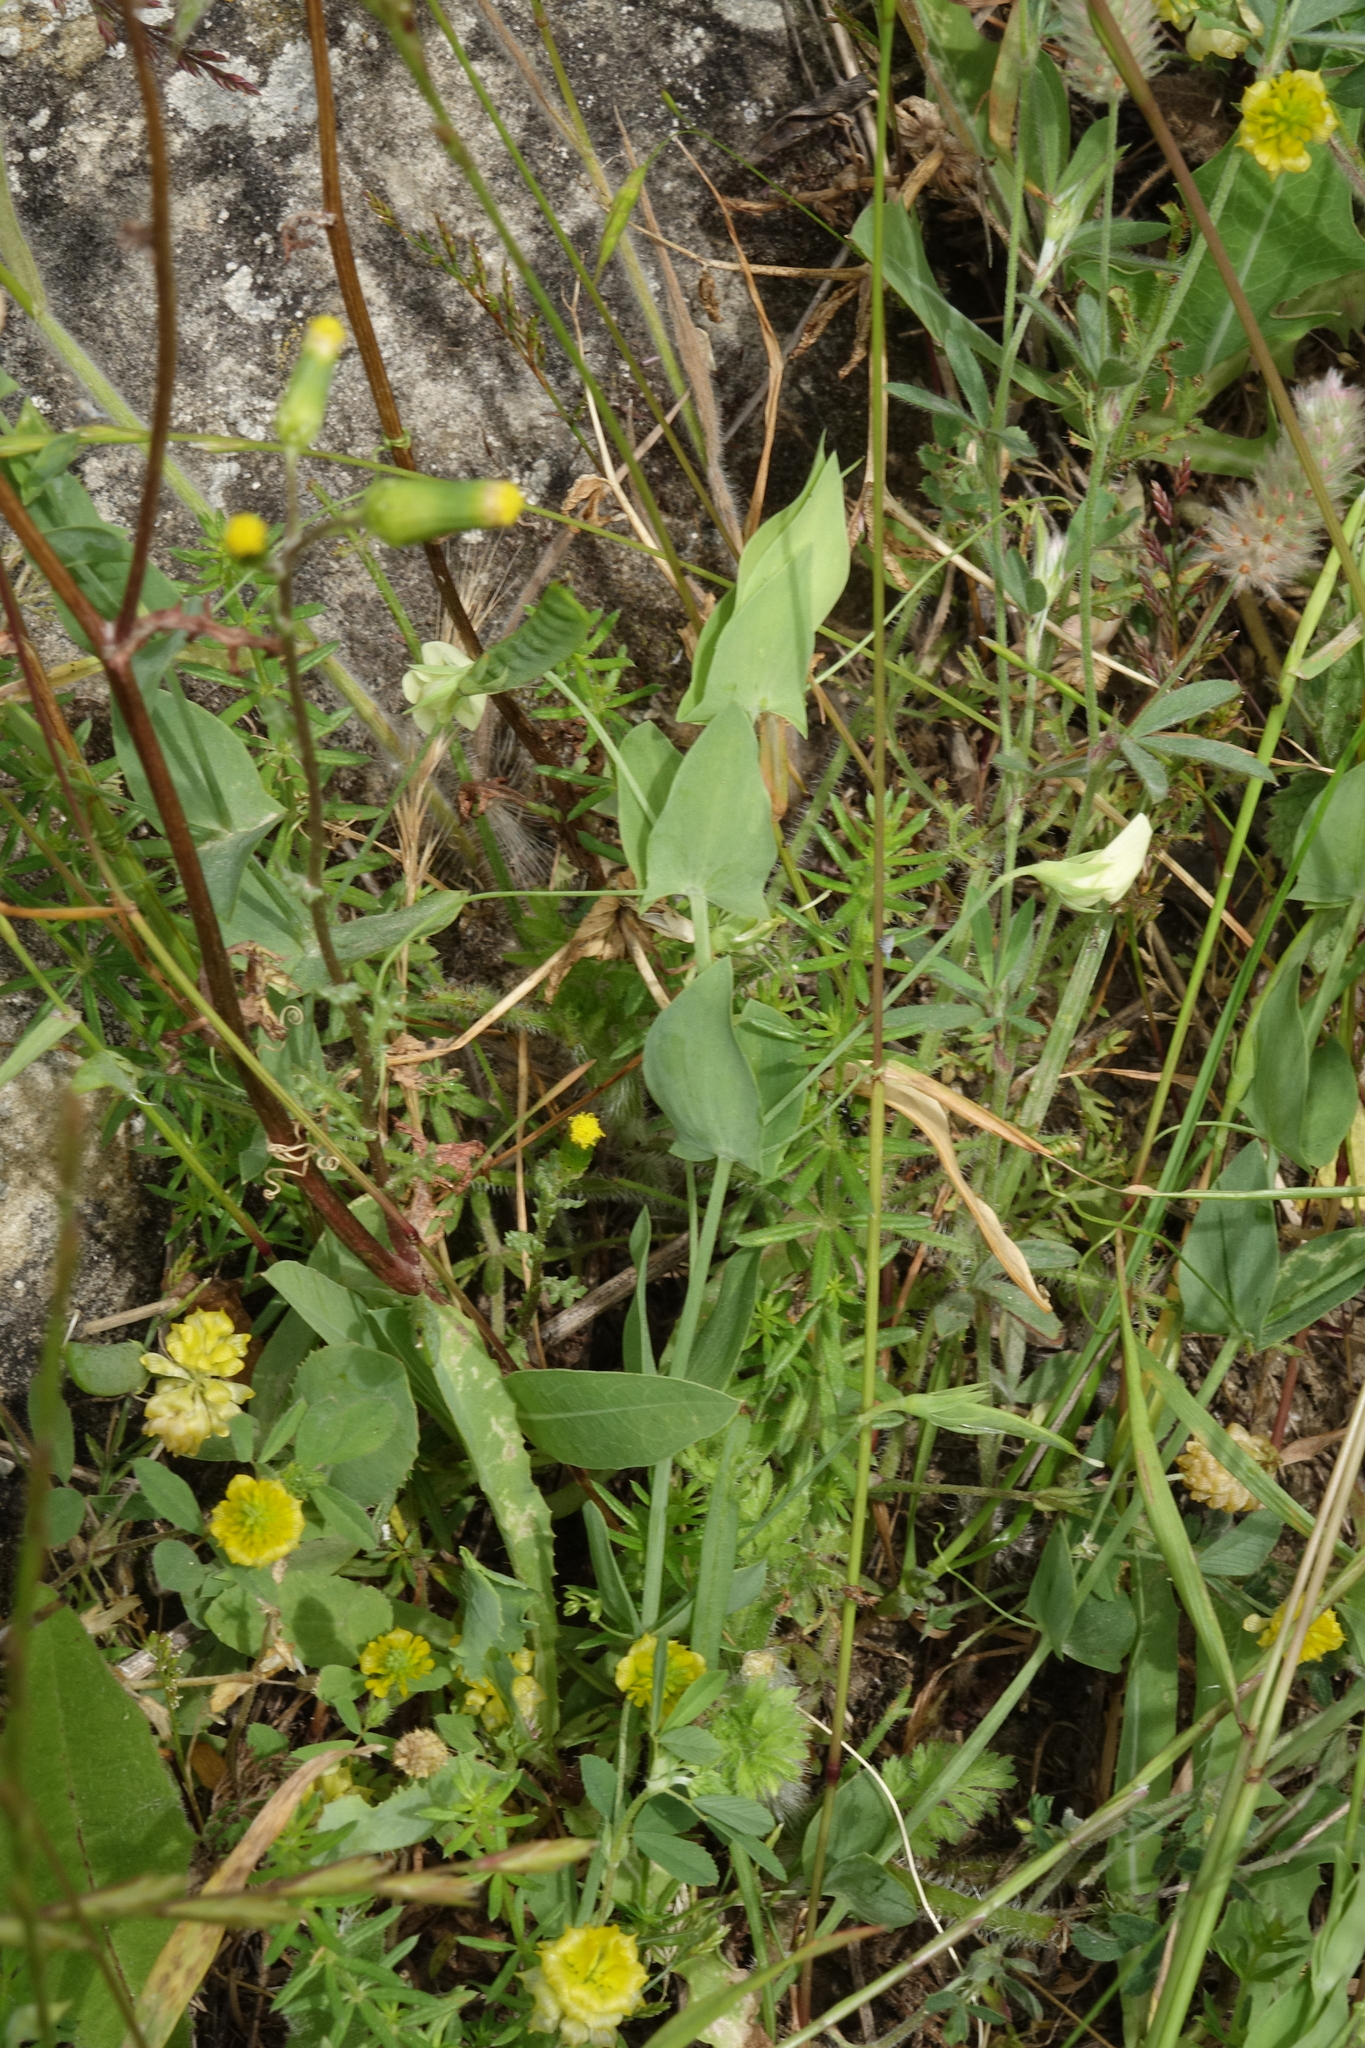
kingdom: Plantae
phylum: Tracheophyta
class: Magnoliopsida
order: Fabales
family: Fabaceae
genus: Lathyrus
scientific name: Lathyrus aphaca
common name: Yellow vetchling
